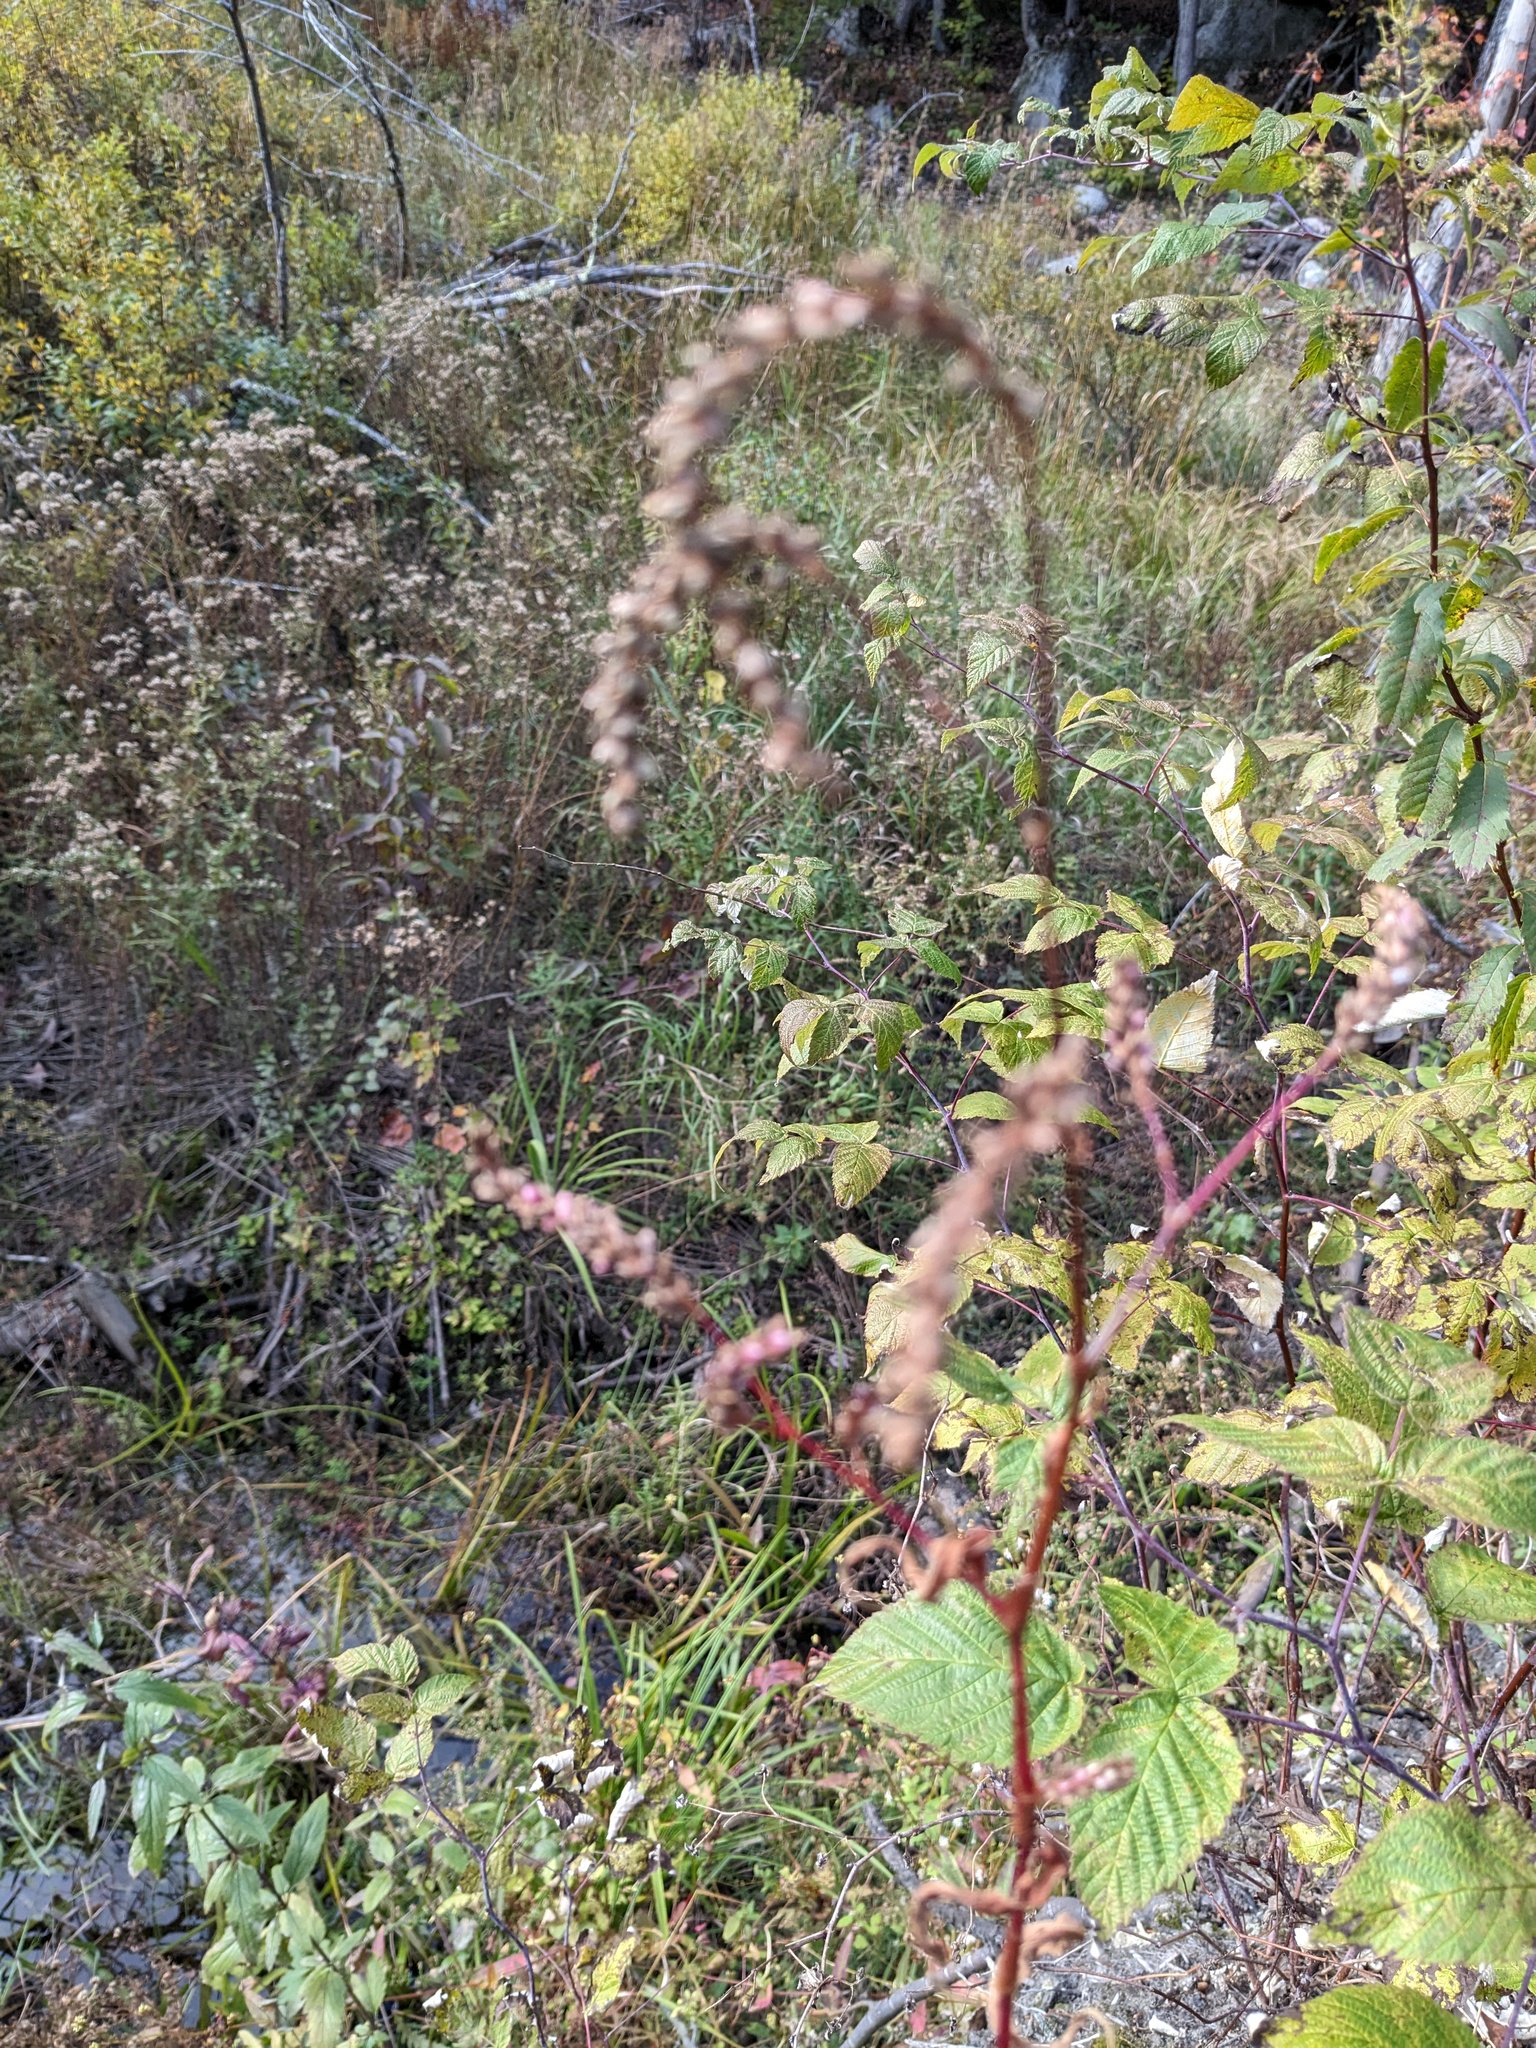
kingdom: Plantae
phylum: Tracheophyta
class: Magnoliopsida
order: Caryophyllales
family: Polygonaceae
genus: Persicaria
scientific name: Persicaria extremiorientalis
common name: Far-eastern smartweed
